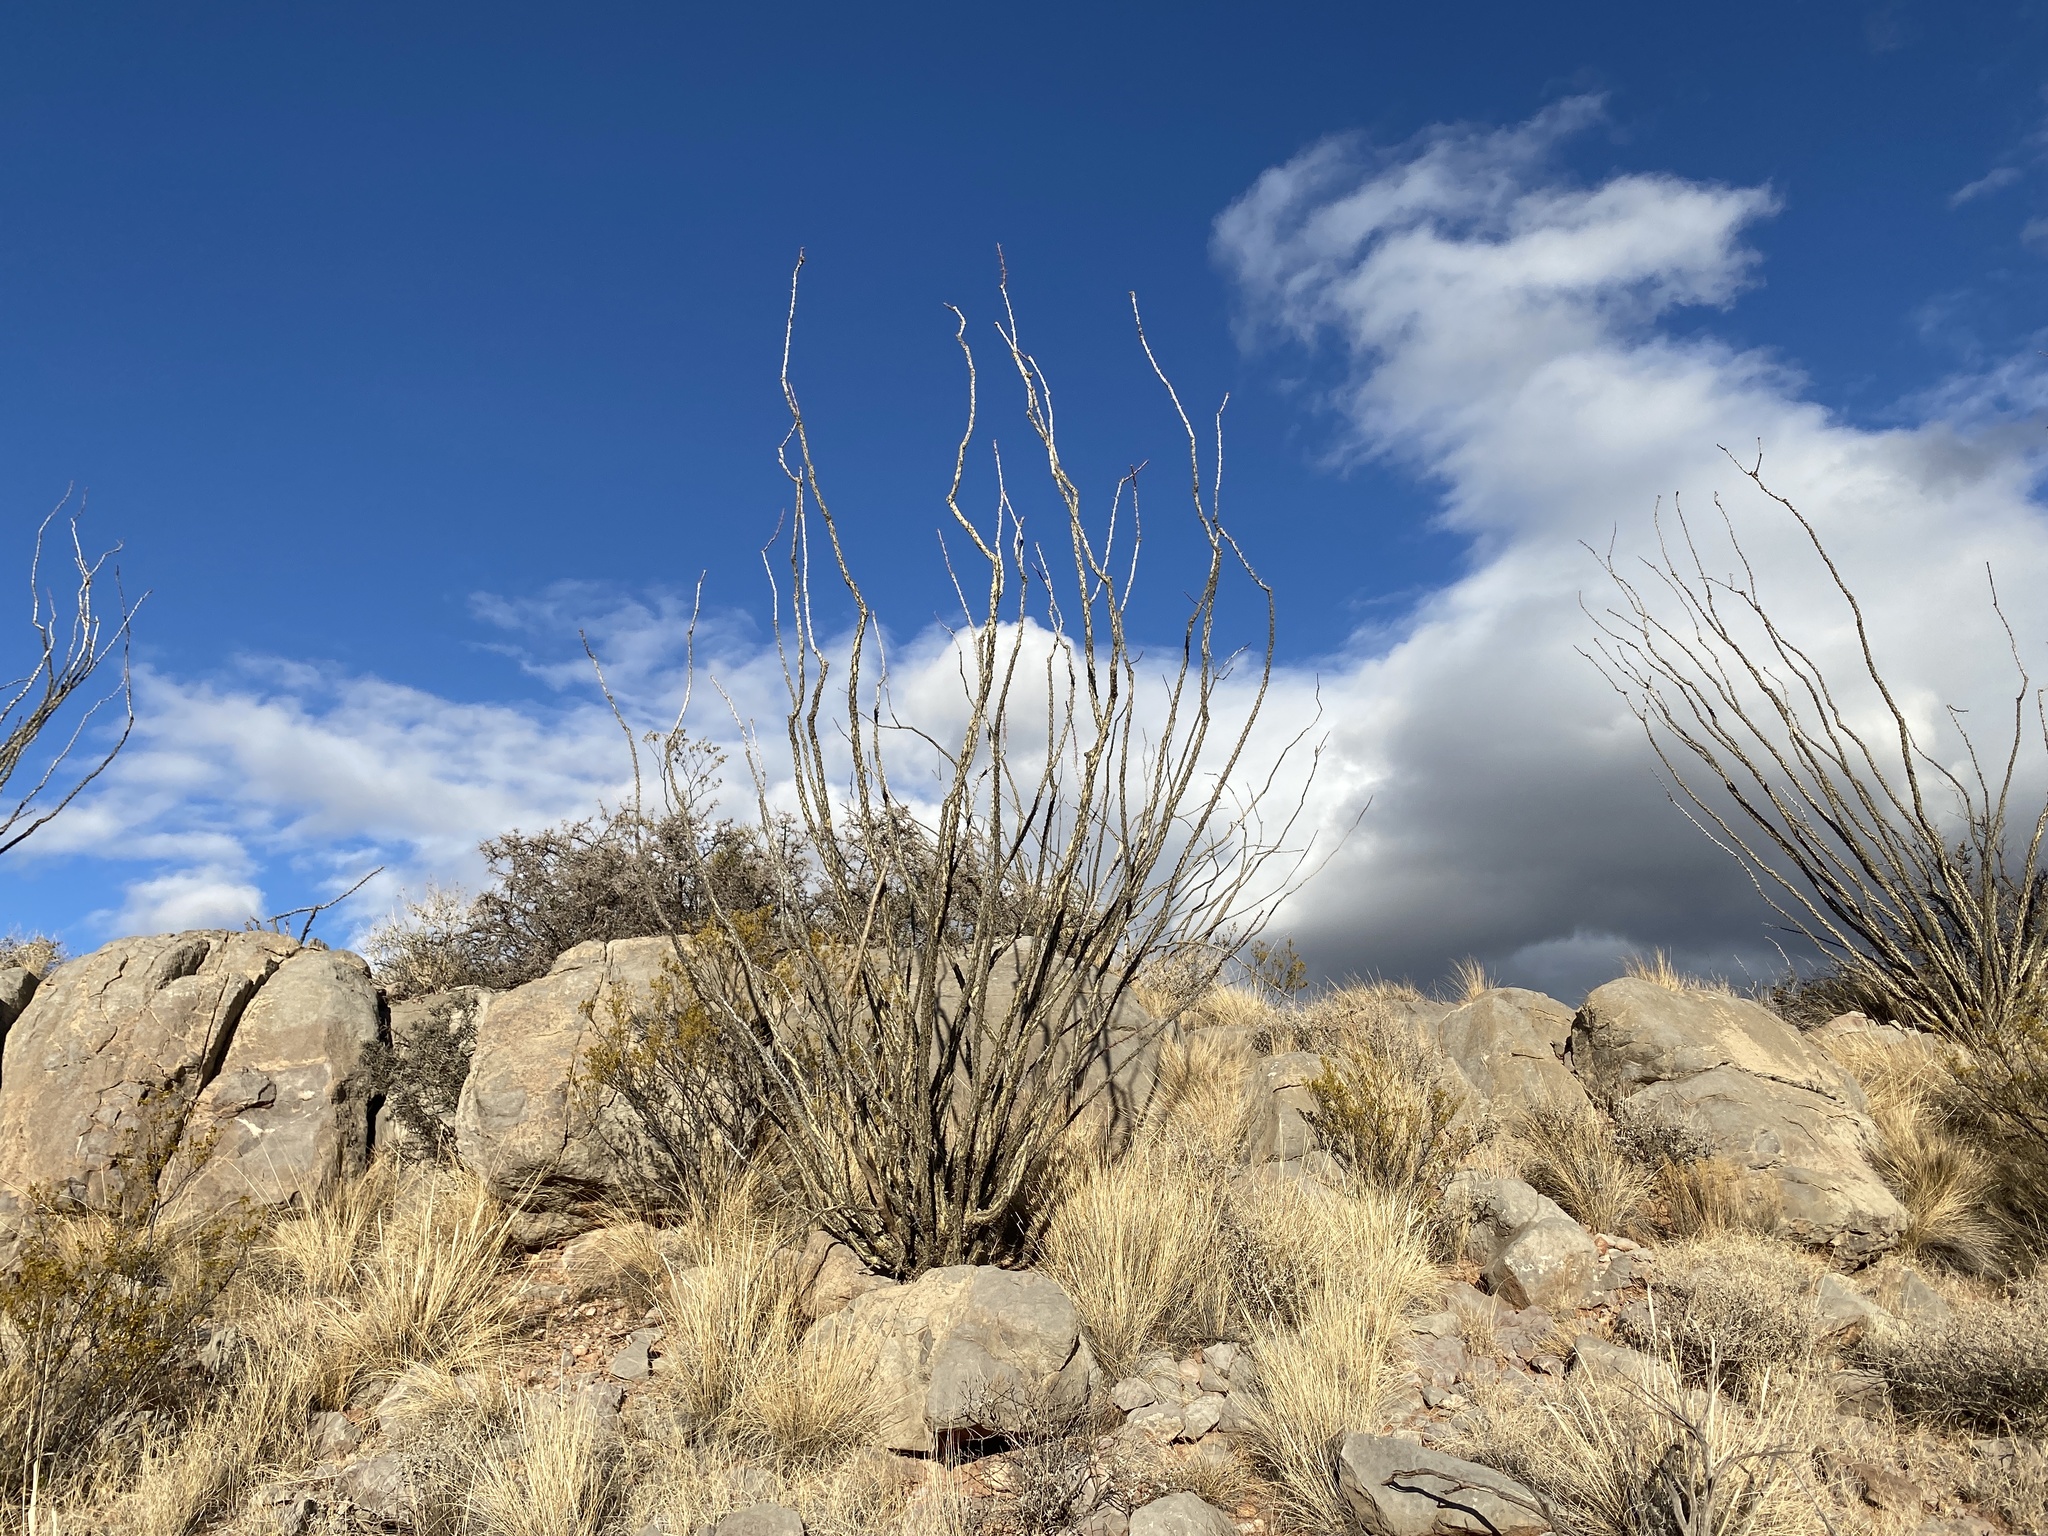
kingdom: Plantae
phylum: Tracheophyta
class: Magnoliopsida
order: Ericales
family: Fouquieriaceae
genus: Fouquieria
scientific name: Fouquieria splendens
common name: Vine-cactus
